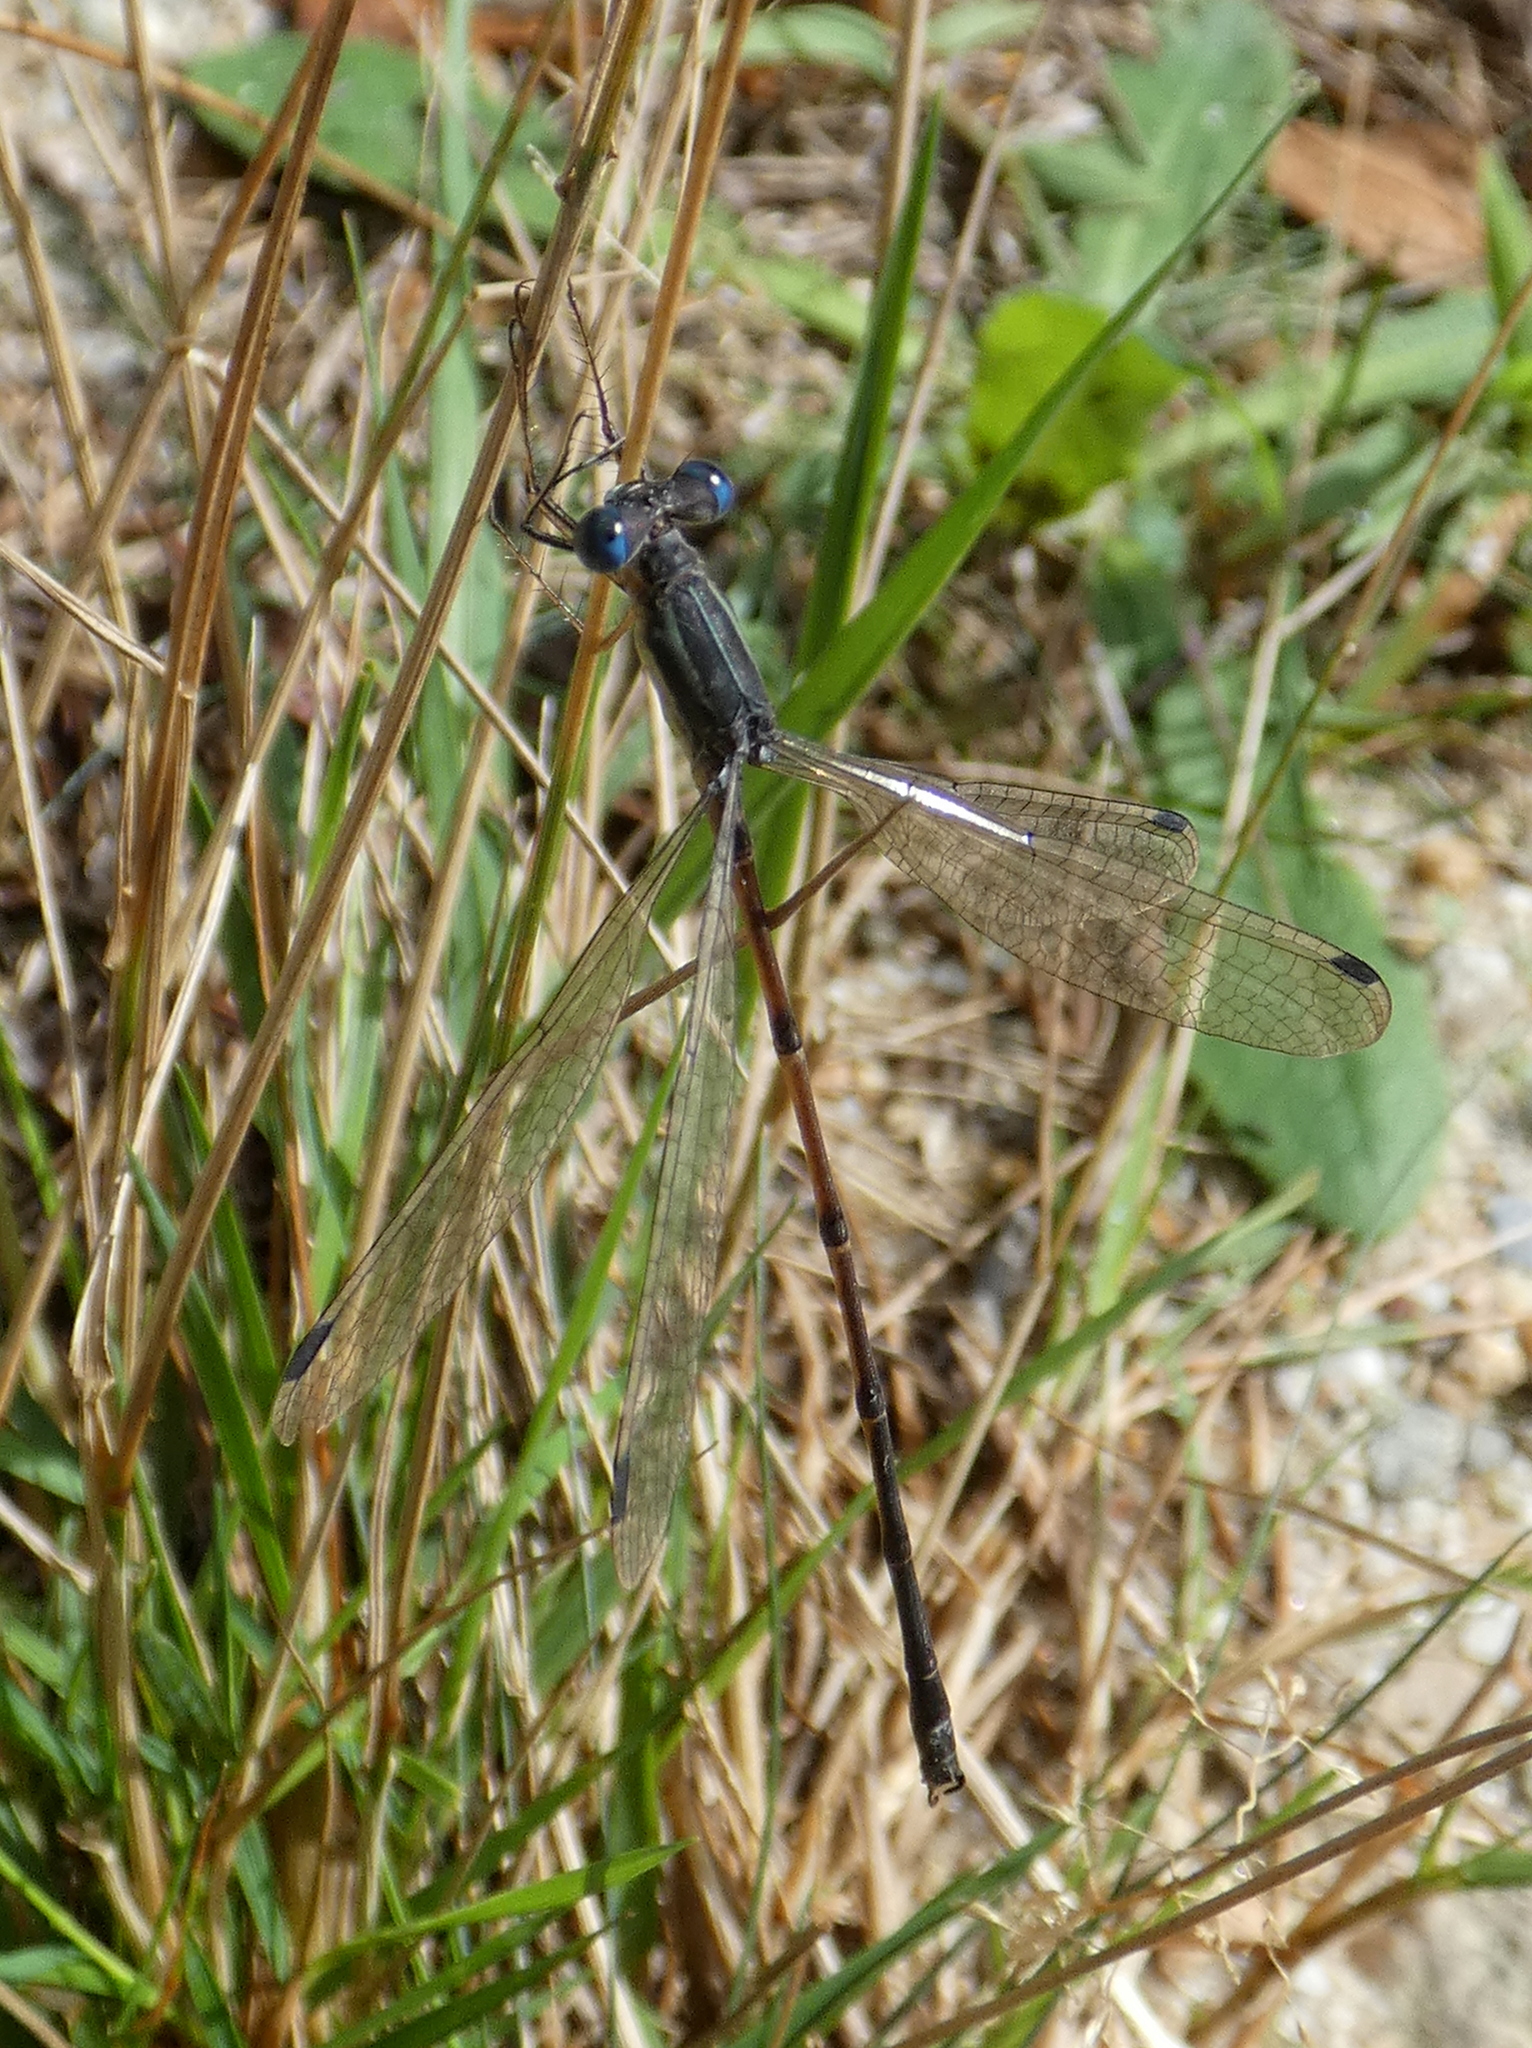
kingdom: Animalia
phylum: Arthropoda
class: Insecta
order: Odonata
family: Lestidae
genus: Lestes
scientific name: Lestes rectangularis
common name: Slender spreadwing
